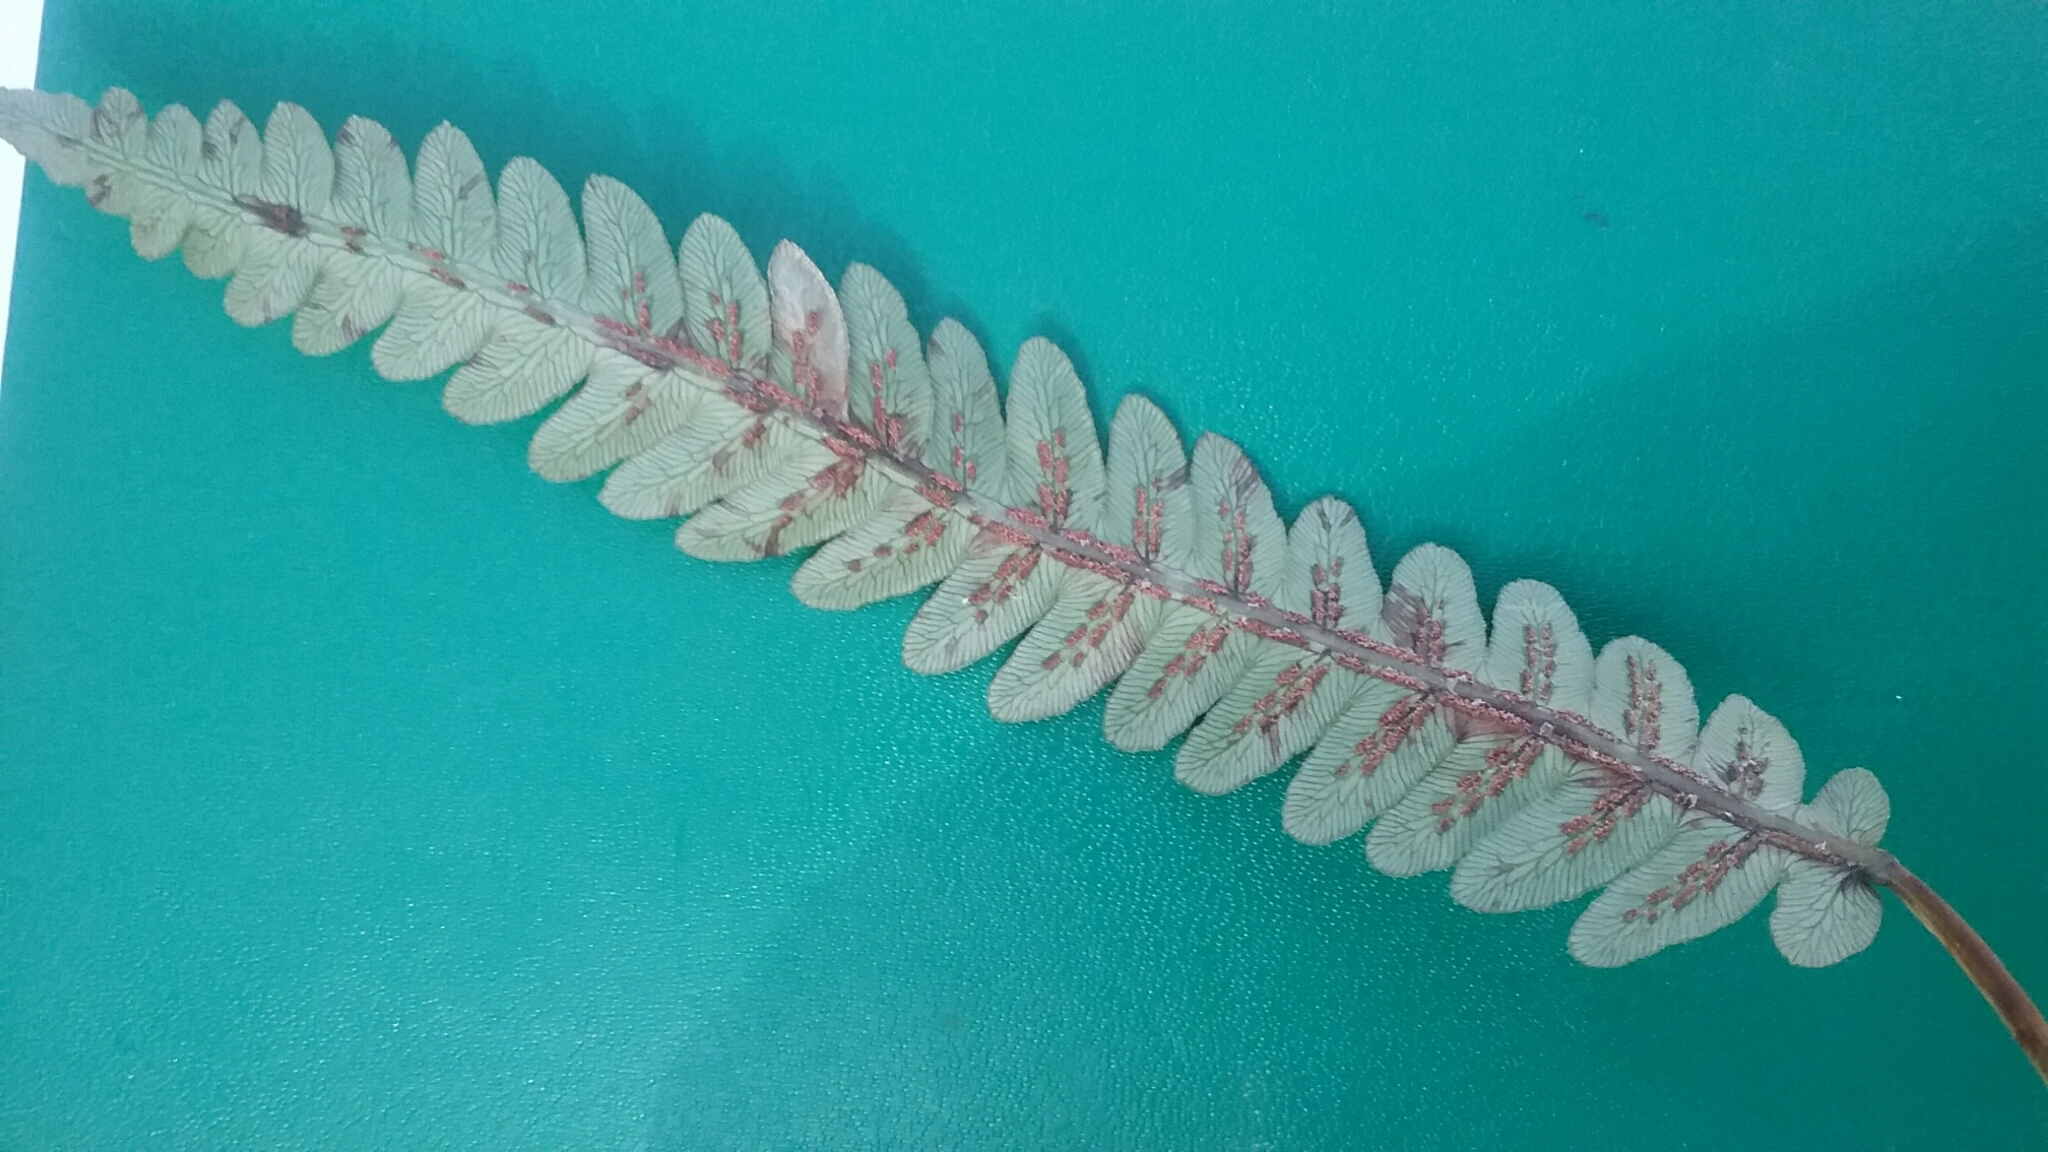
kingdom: Plantae
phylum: Tracheophyta
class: Polypodiopsida
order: Polypodiales
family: Blechnaceae
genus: Anchistea
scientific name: Anchistea virginica
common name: Virginia chain fern
